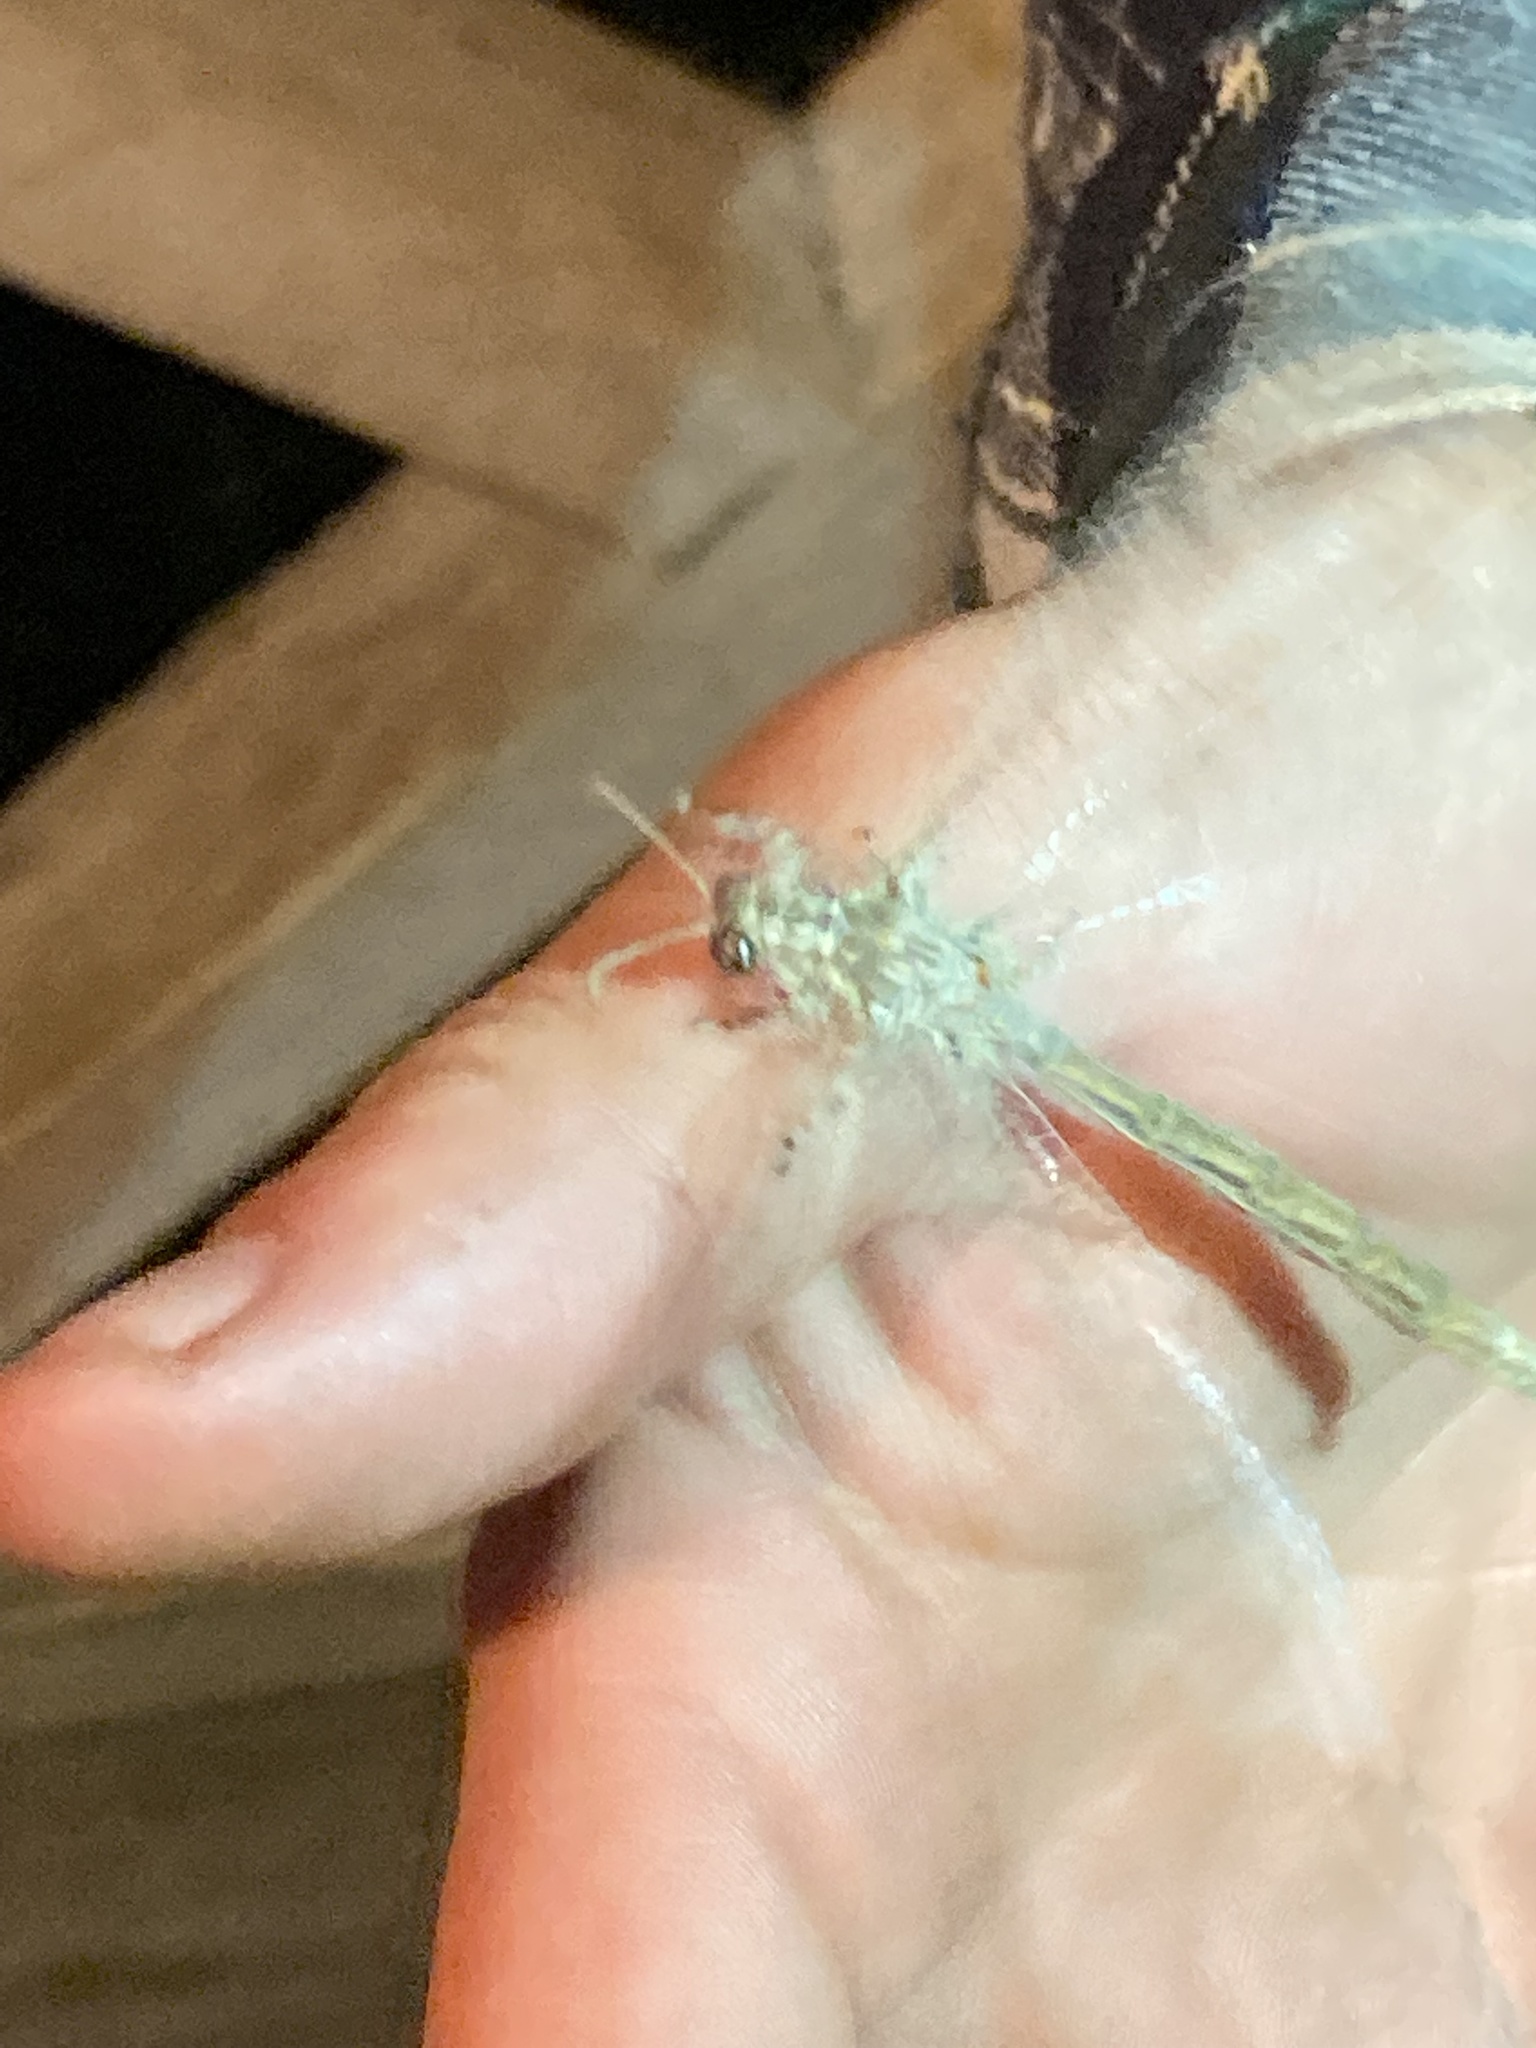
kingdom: Animalia
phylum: Arthropoda
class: Insecta
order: Neuroptera
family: Myrmeleontidae
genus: Vella
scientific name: Vella fallax
